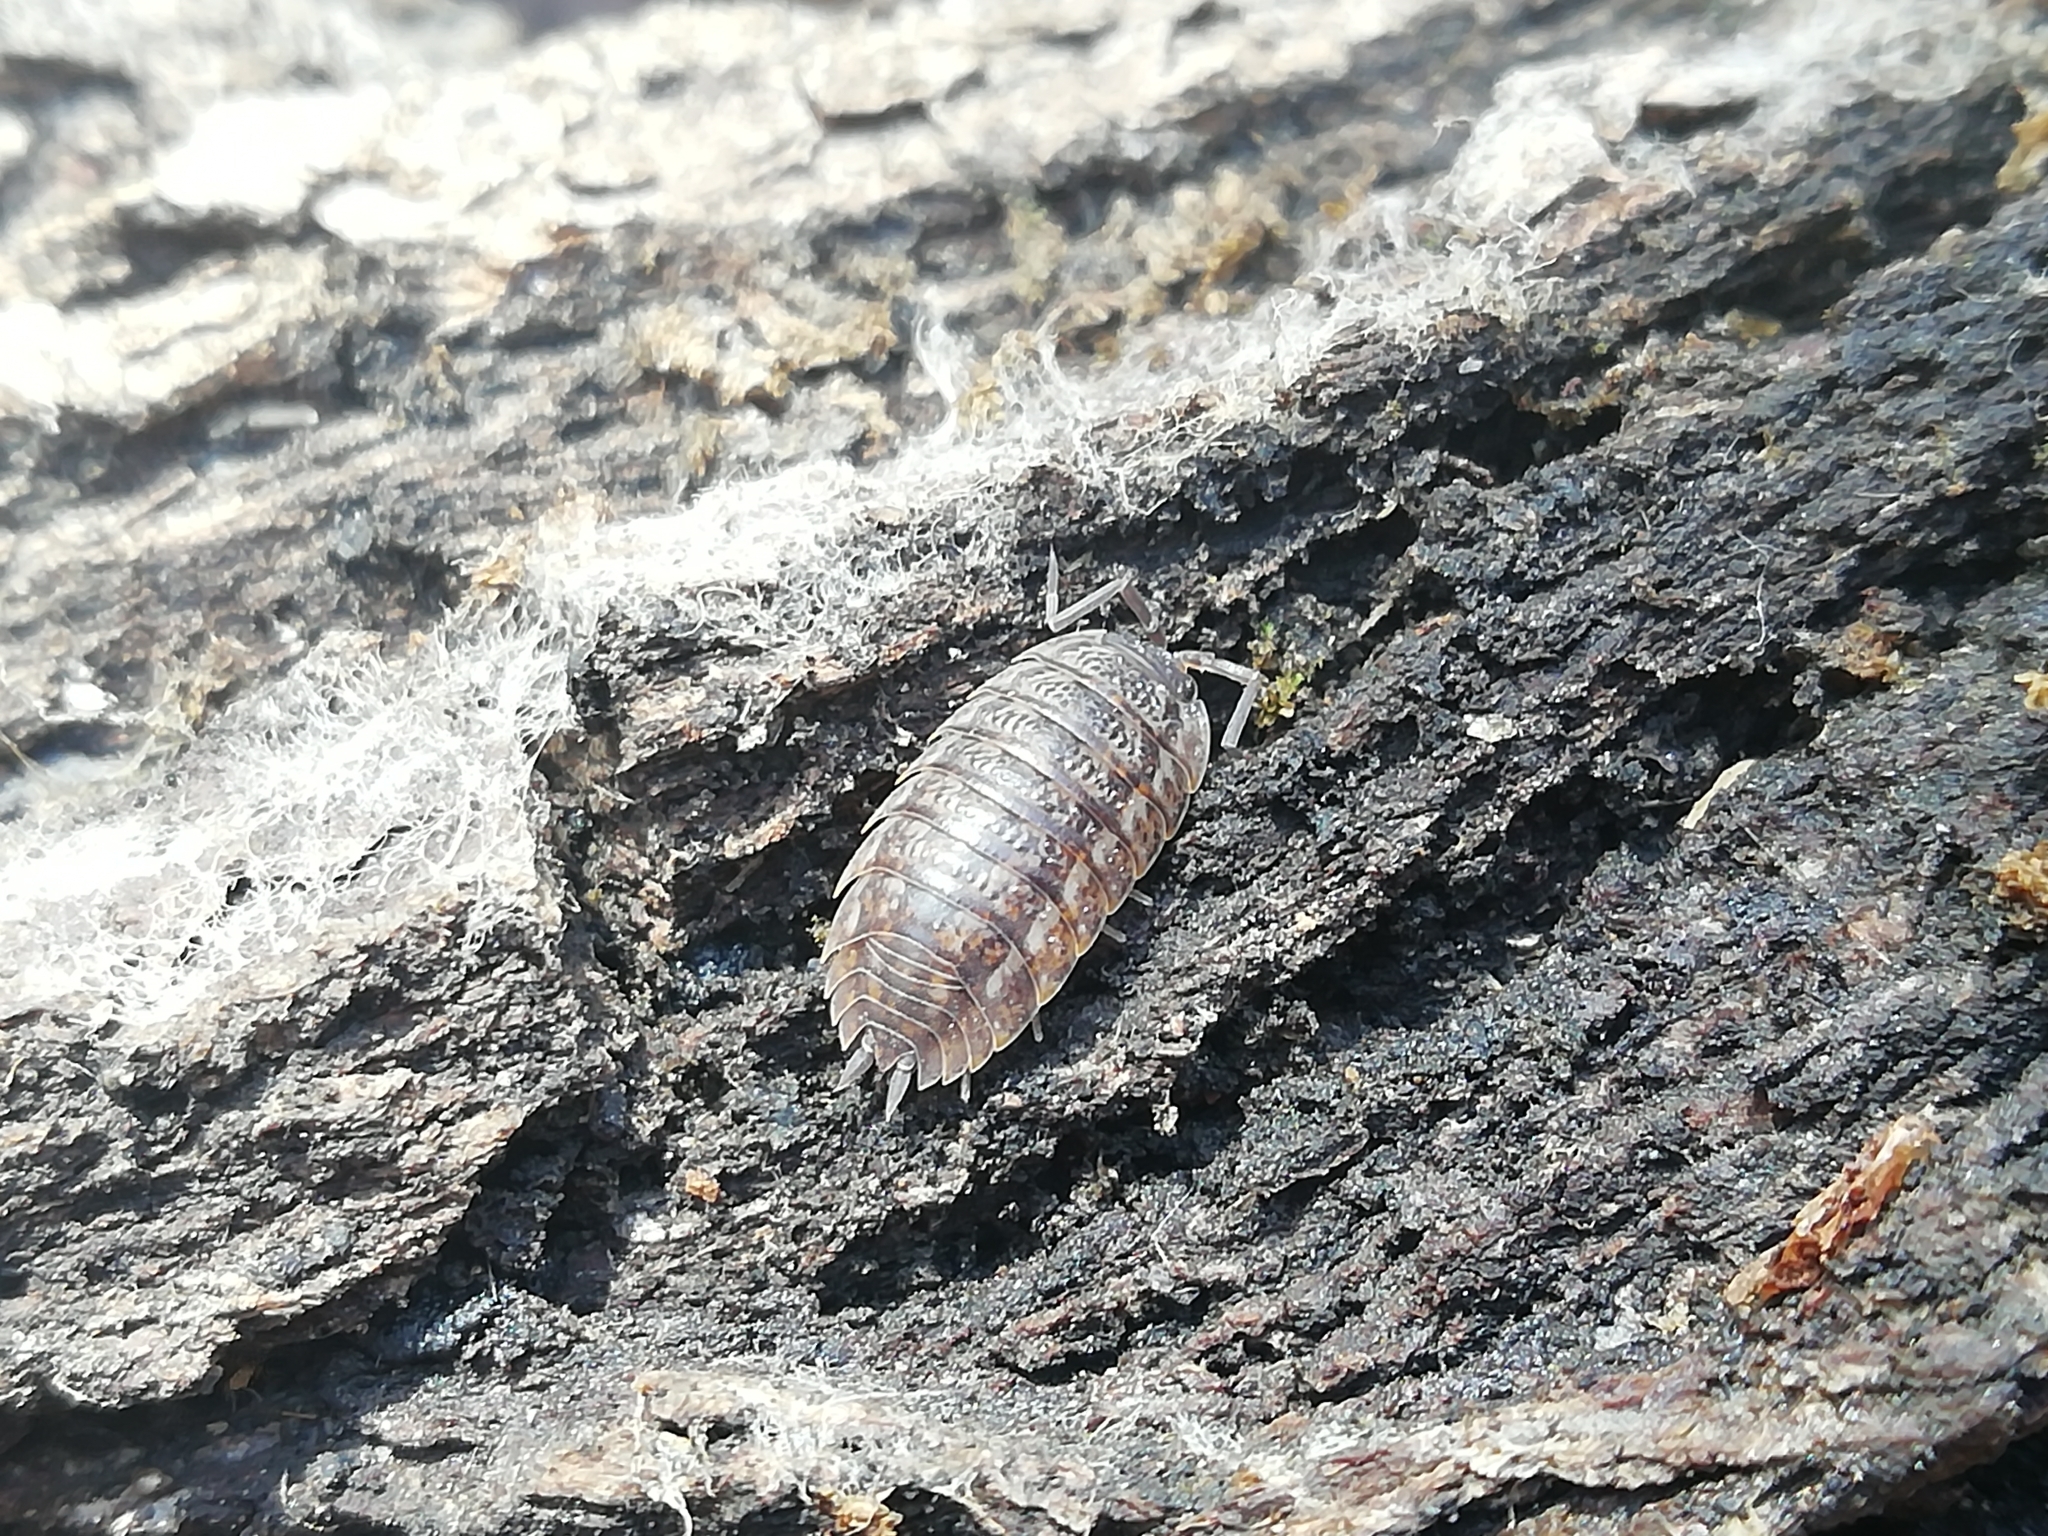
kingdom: Animalia
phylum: Arthropoda
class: Malacostraca
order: Isopoda
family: Trachelipodidae
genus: Trachelipus
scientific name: Trachelipus rathkii
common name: Isopod
